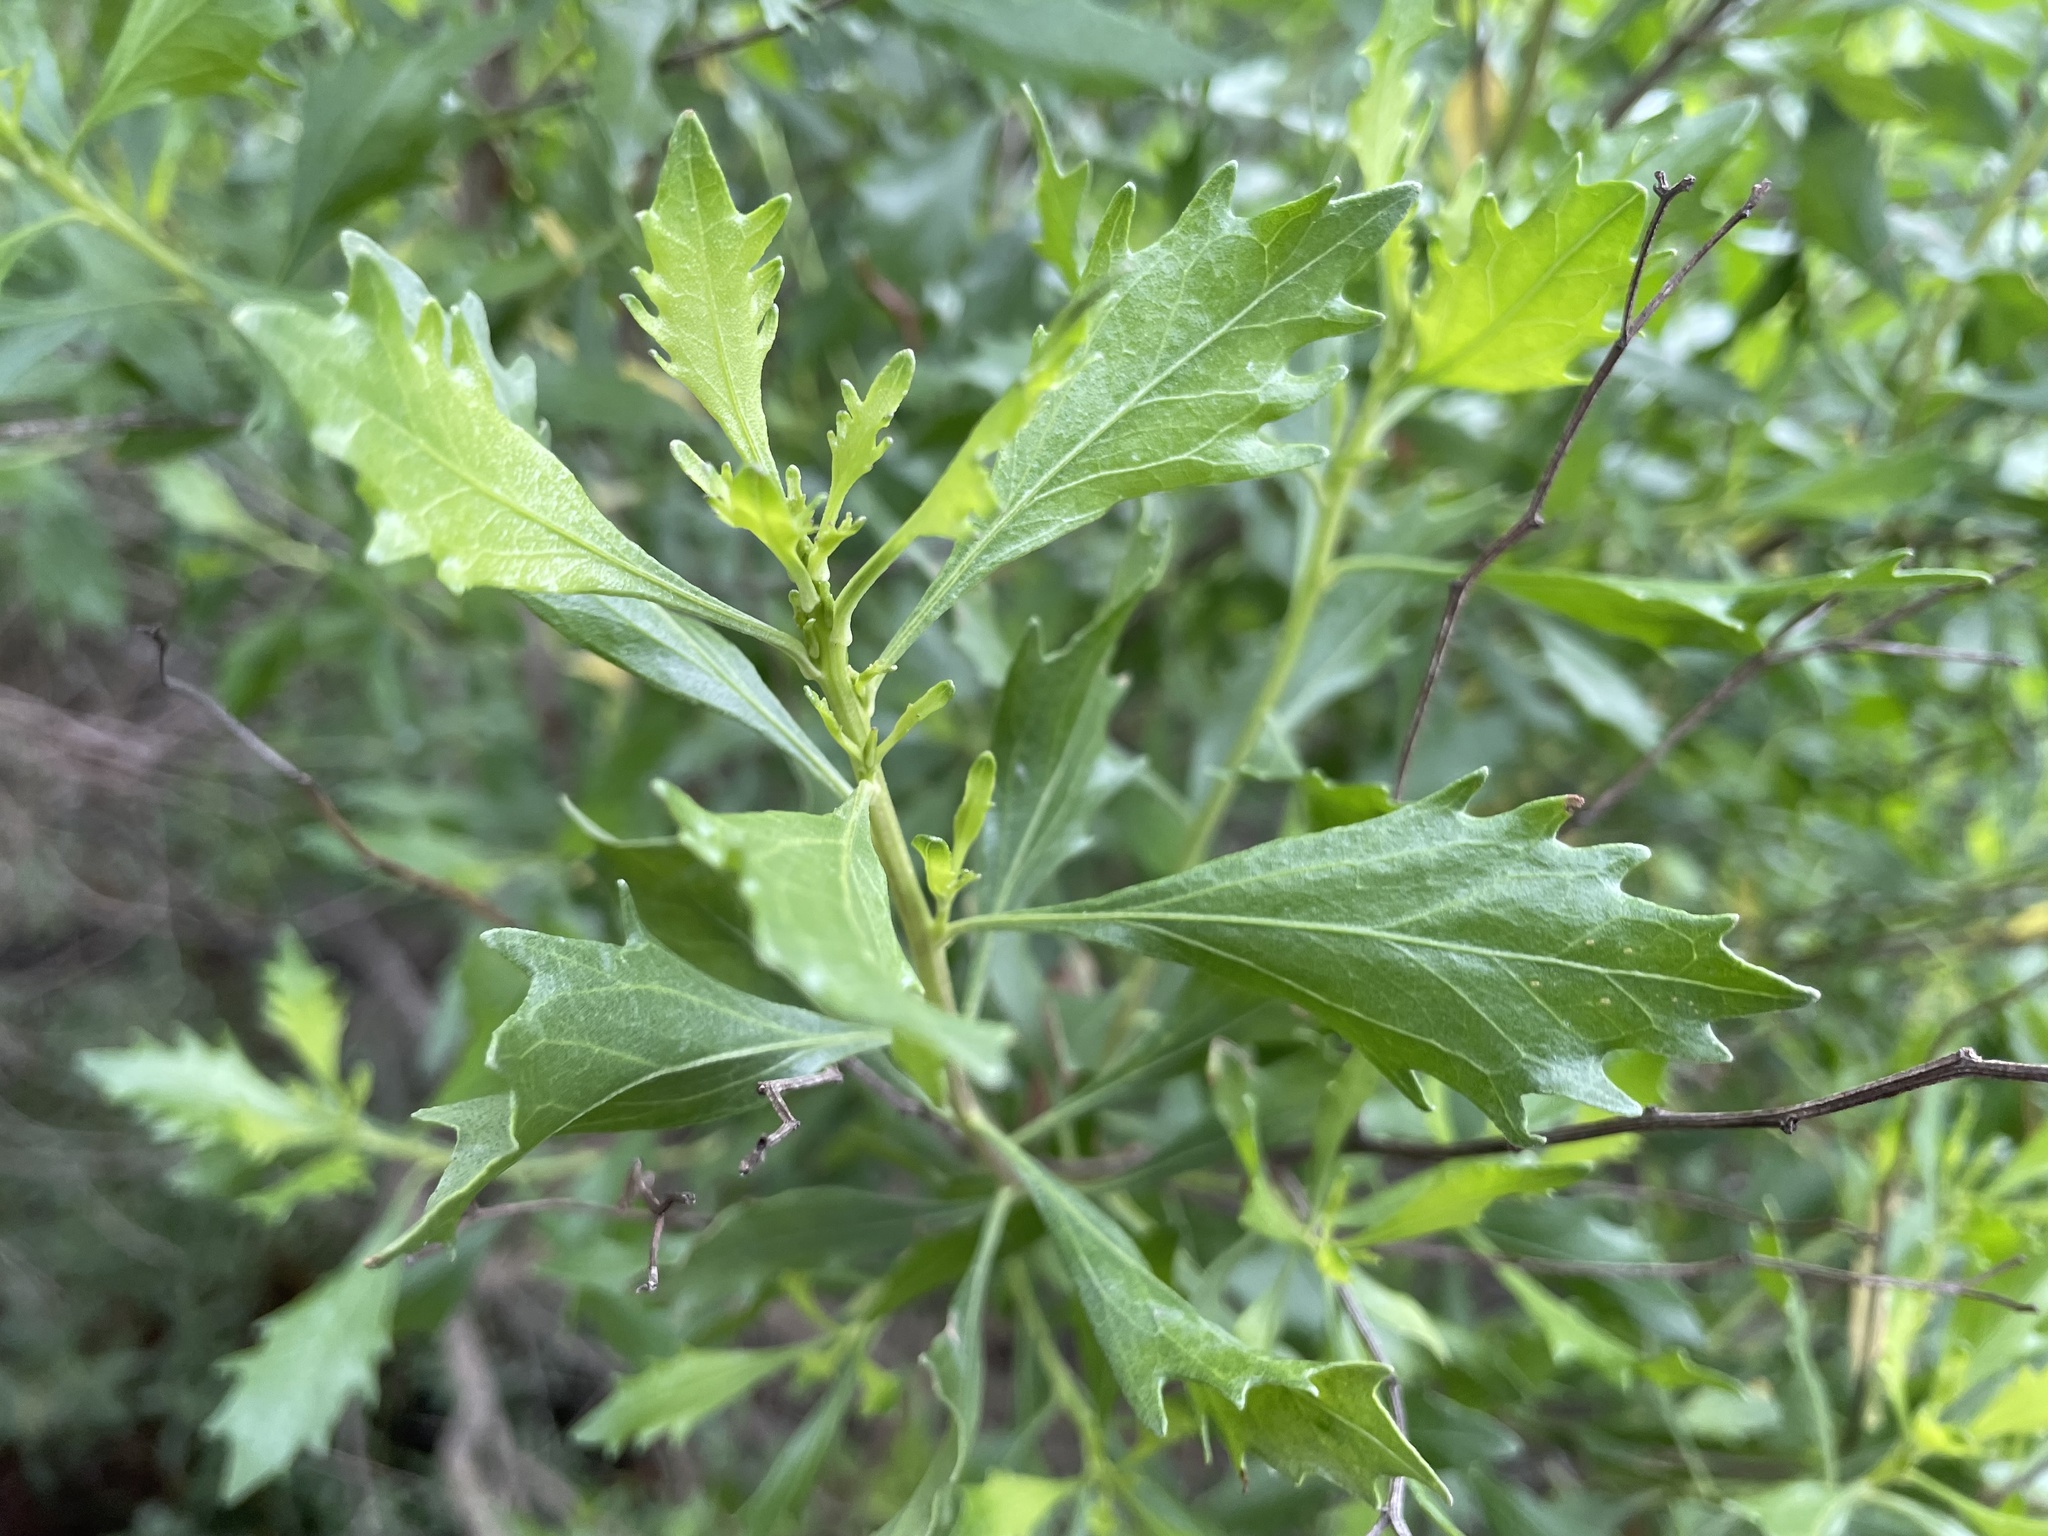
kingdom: Plantae
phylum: Tracheophyta
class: Magnoliopsida
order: Asterales
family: Asteraceae
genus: Baccharis
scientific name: Baccharis halimifolia
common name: Eastern baccharis
